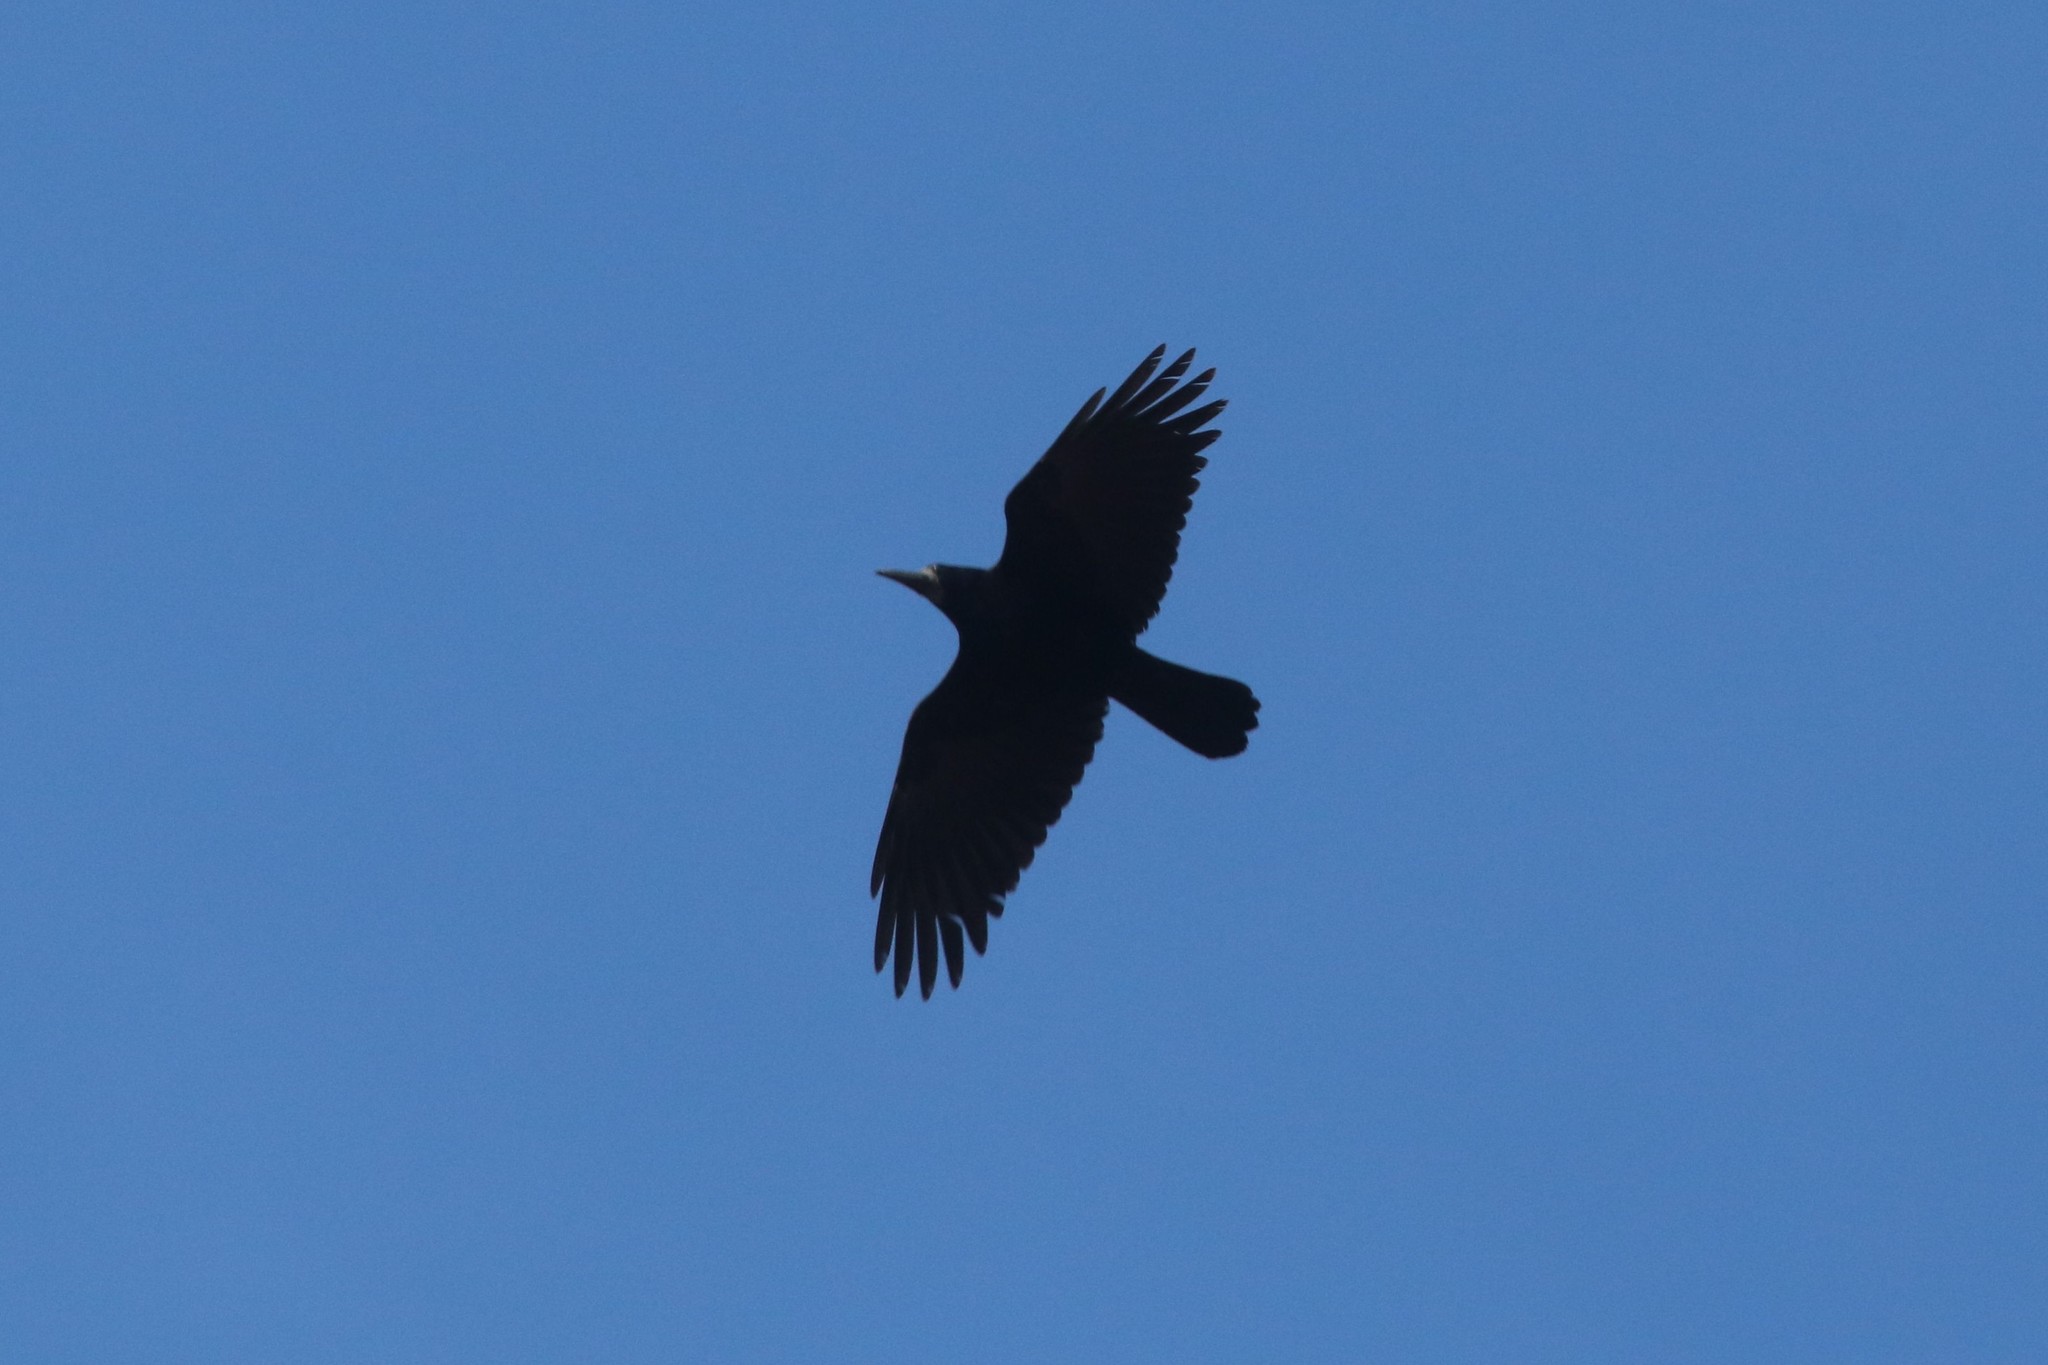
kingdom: Animalia
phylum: Chordata
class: Aves
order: Passeriformes
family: Corvidae
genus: Corvus
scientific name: Corvus frugilegus
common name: Rook
